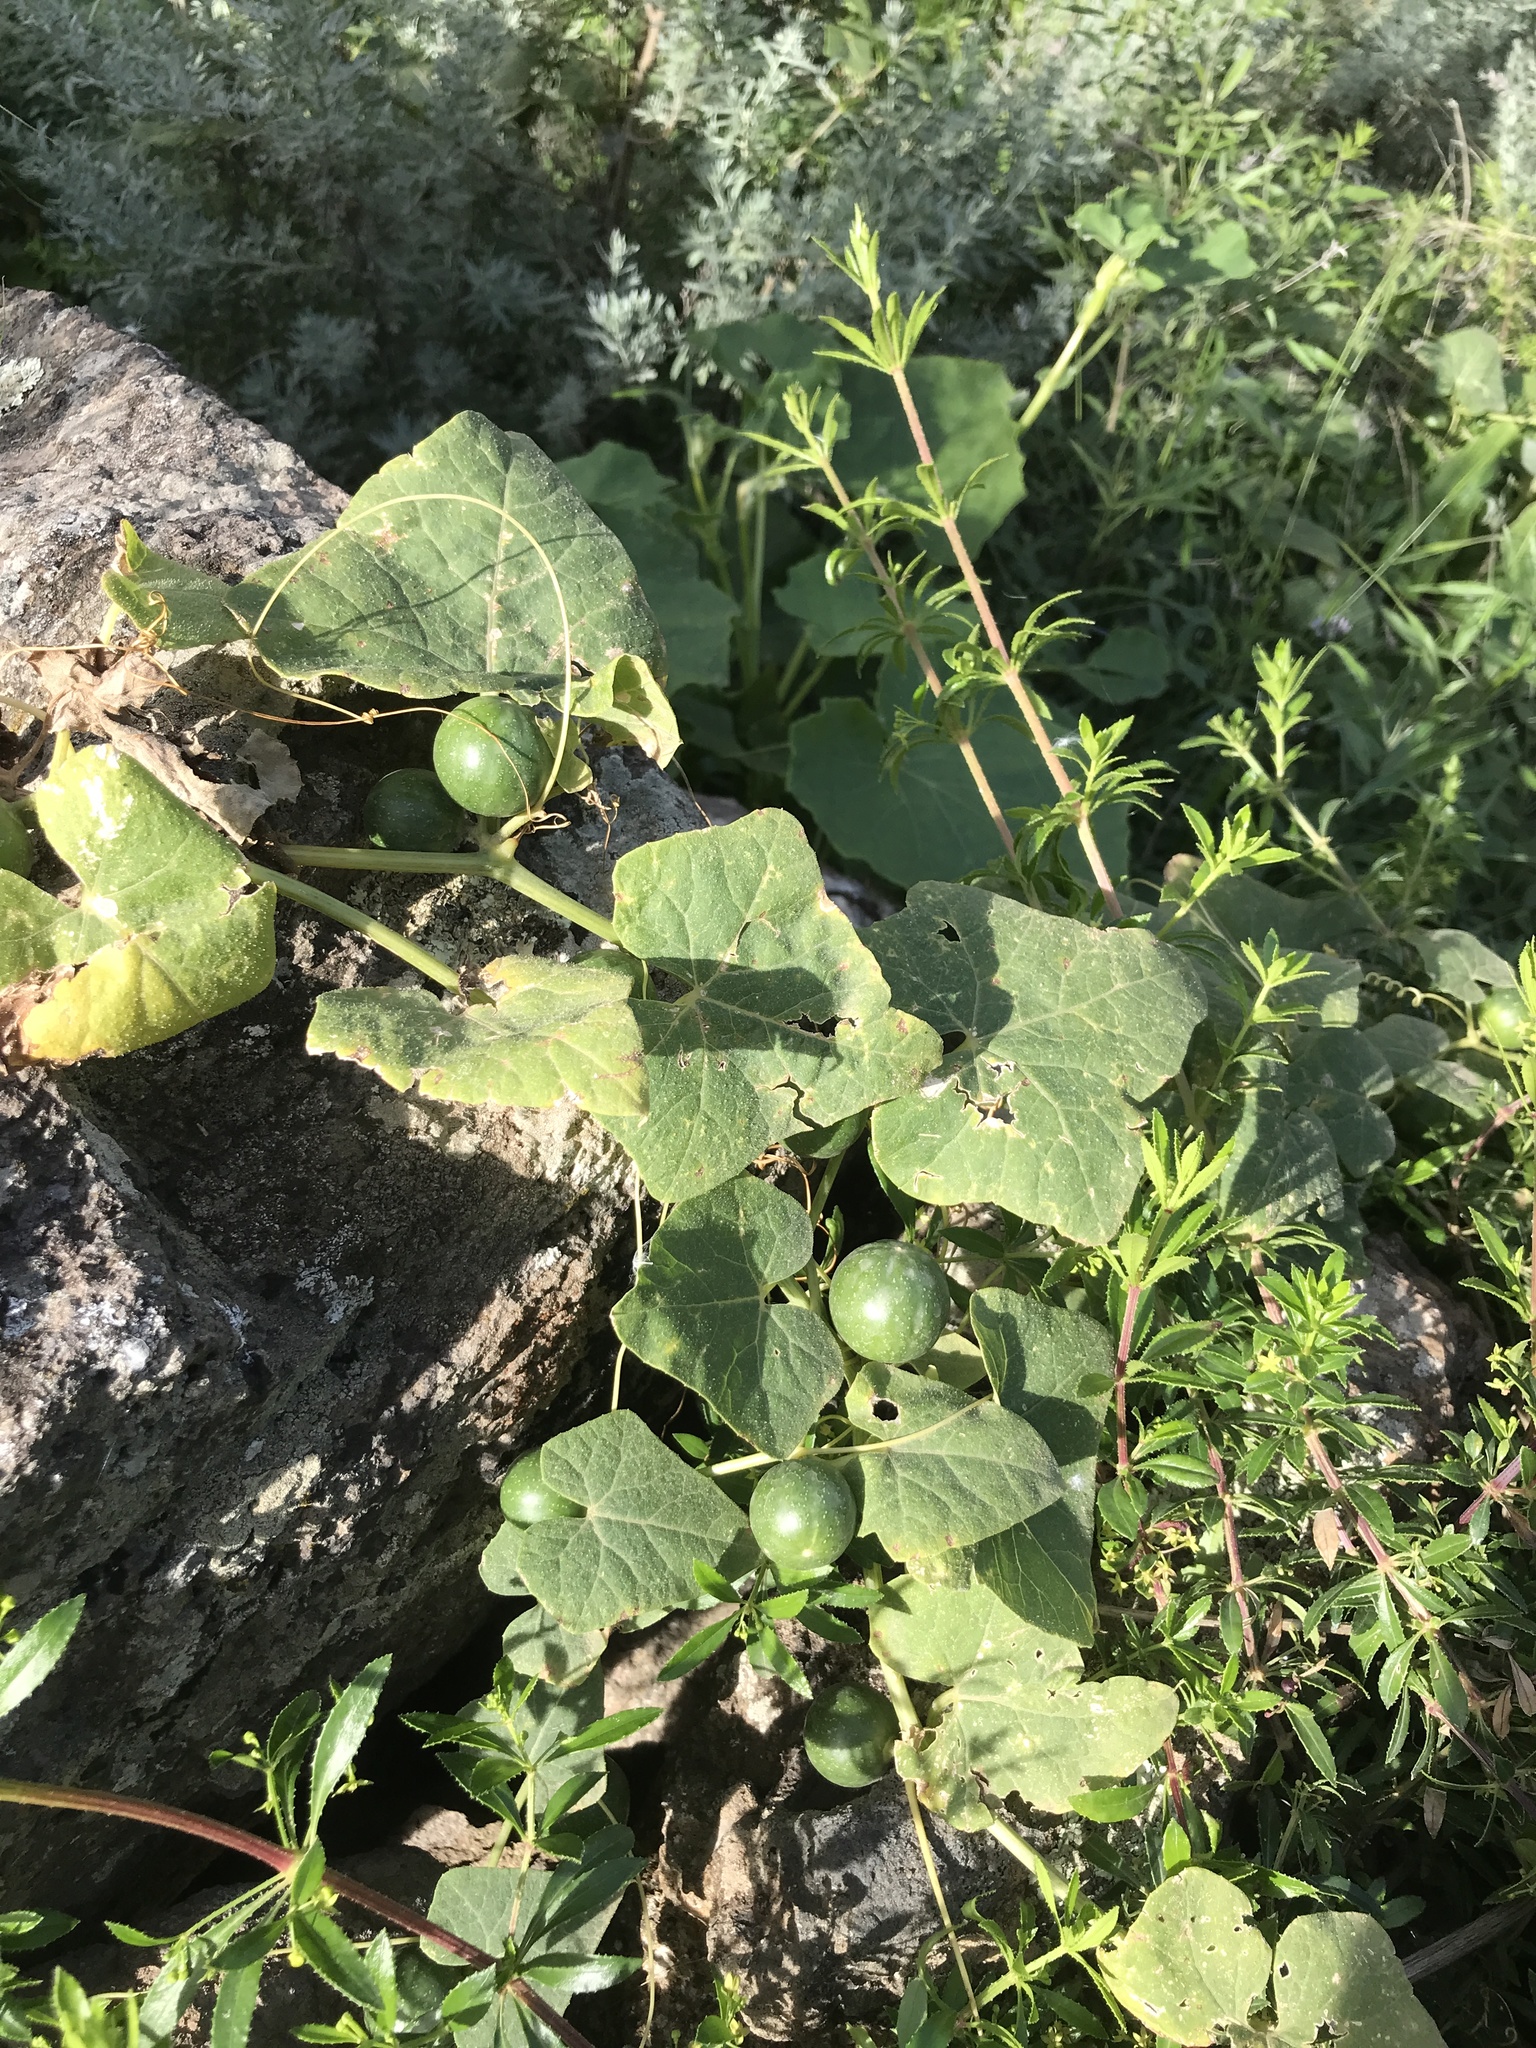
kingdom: Plantae
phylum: Tracheophyta
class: Magnoliopsida
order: Cucurbitales
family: Cucurbitaceae
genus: Bryonia
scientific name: Bryonia verrucosa
